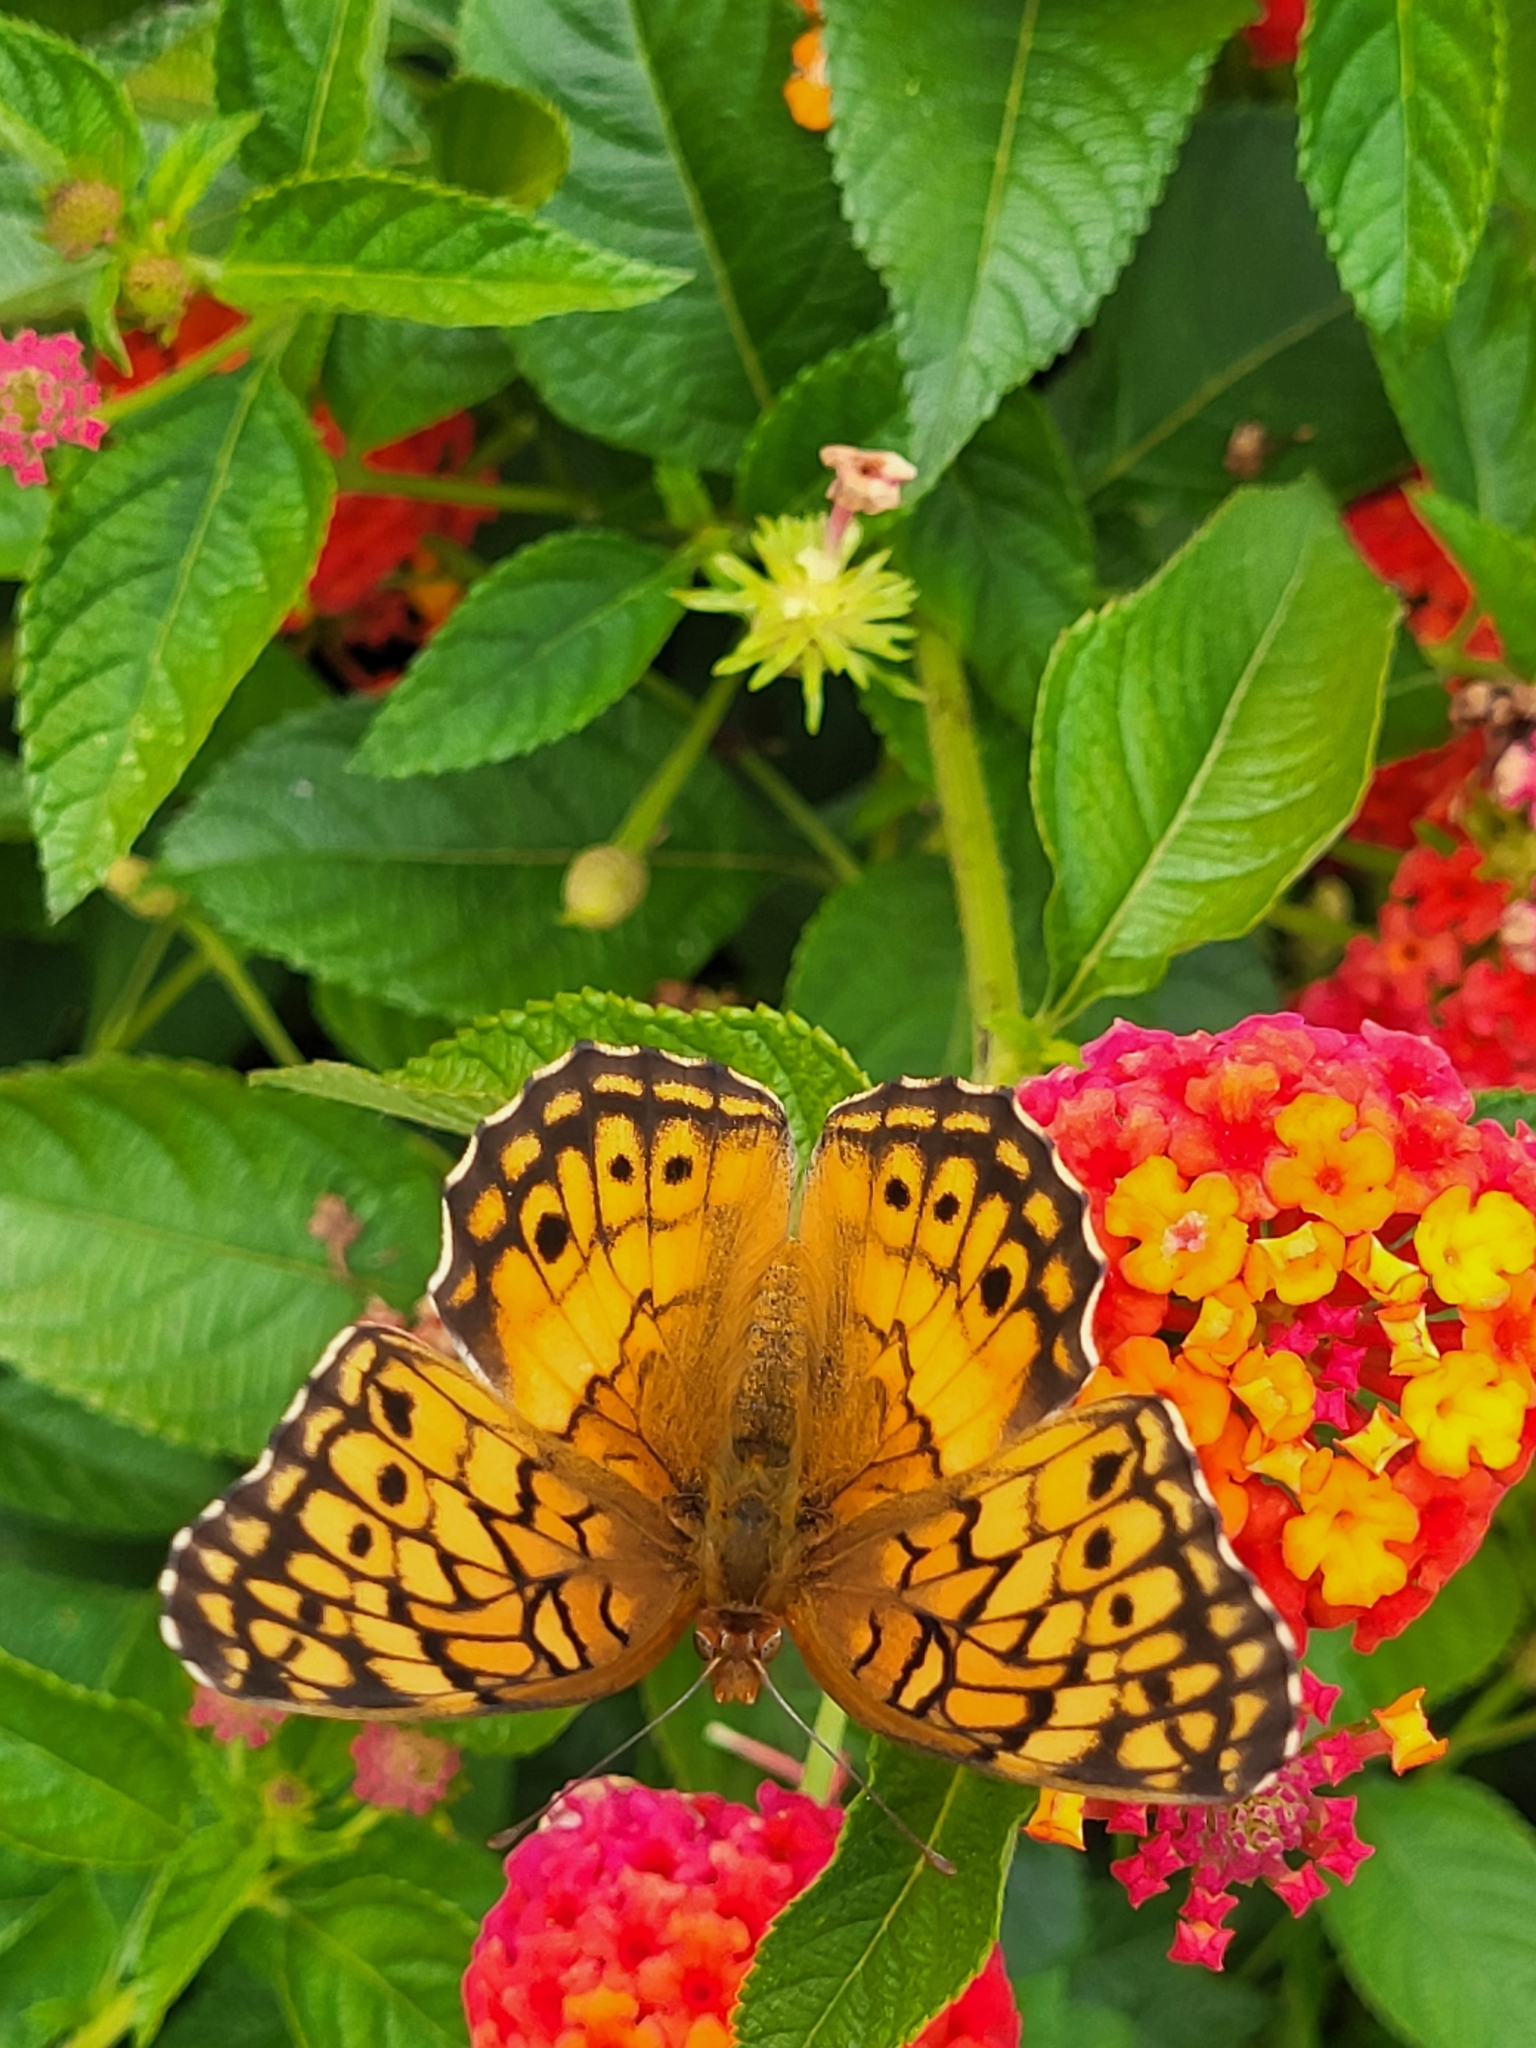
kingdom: Animalia
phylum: Arthropoda
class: Insecta
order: Lepidoptera
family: Nymphalidae
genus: Euptoieta
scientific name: Euptoieta claudia
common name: Variegated fritillary
